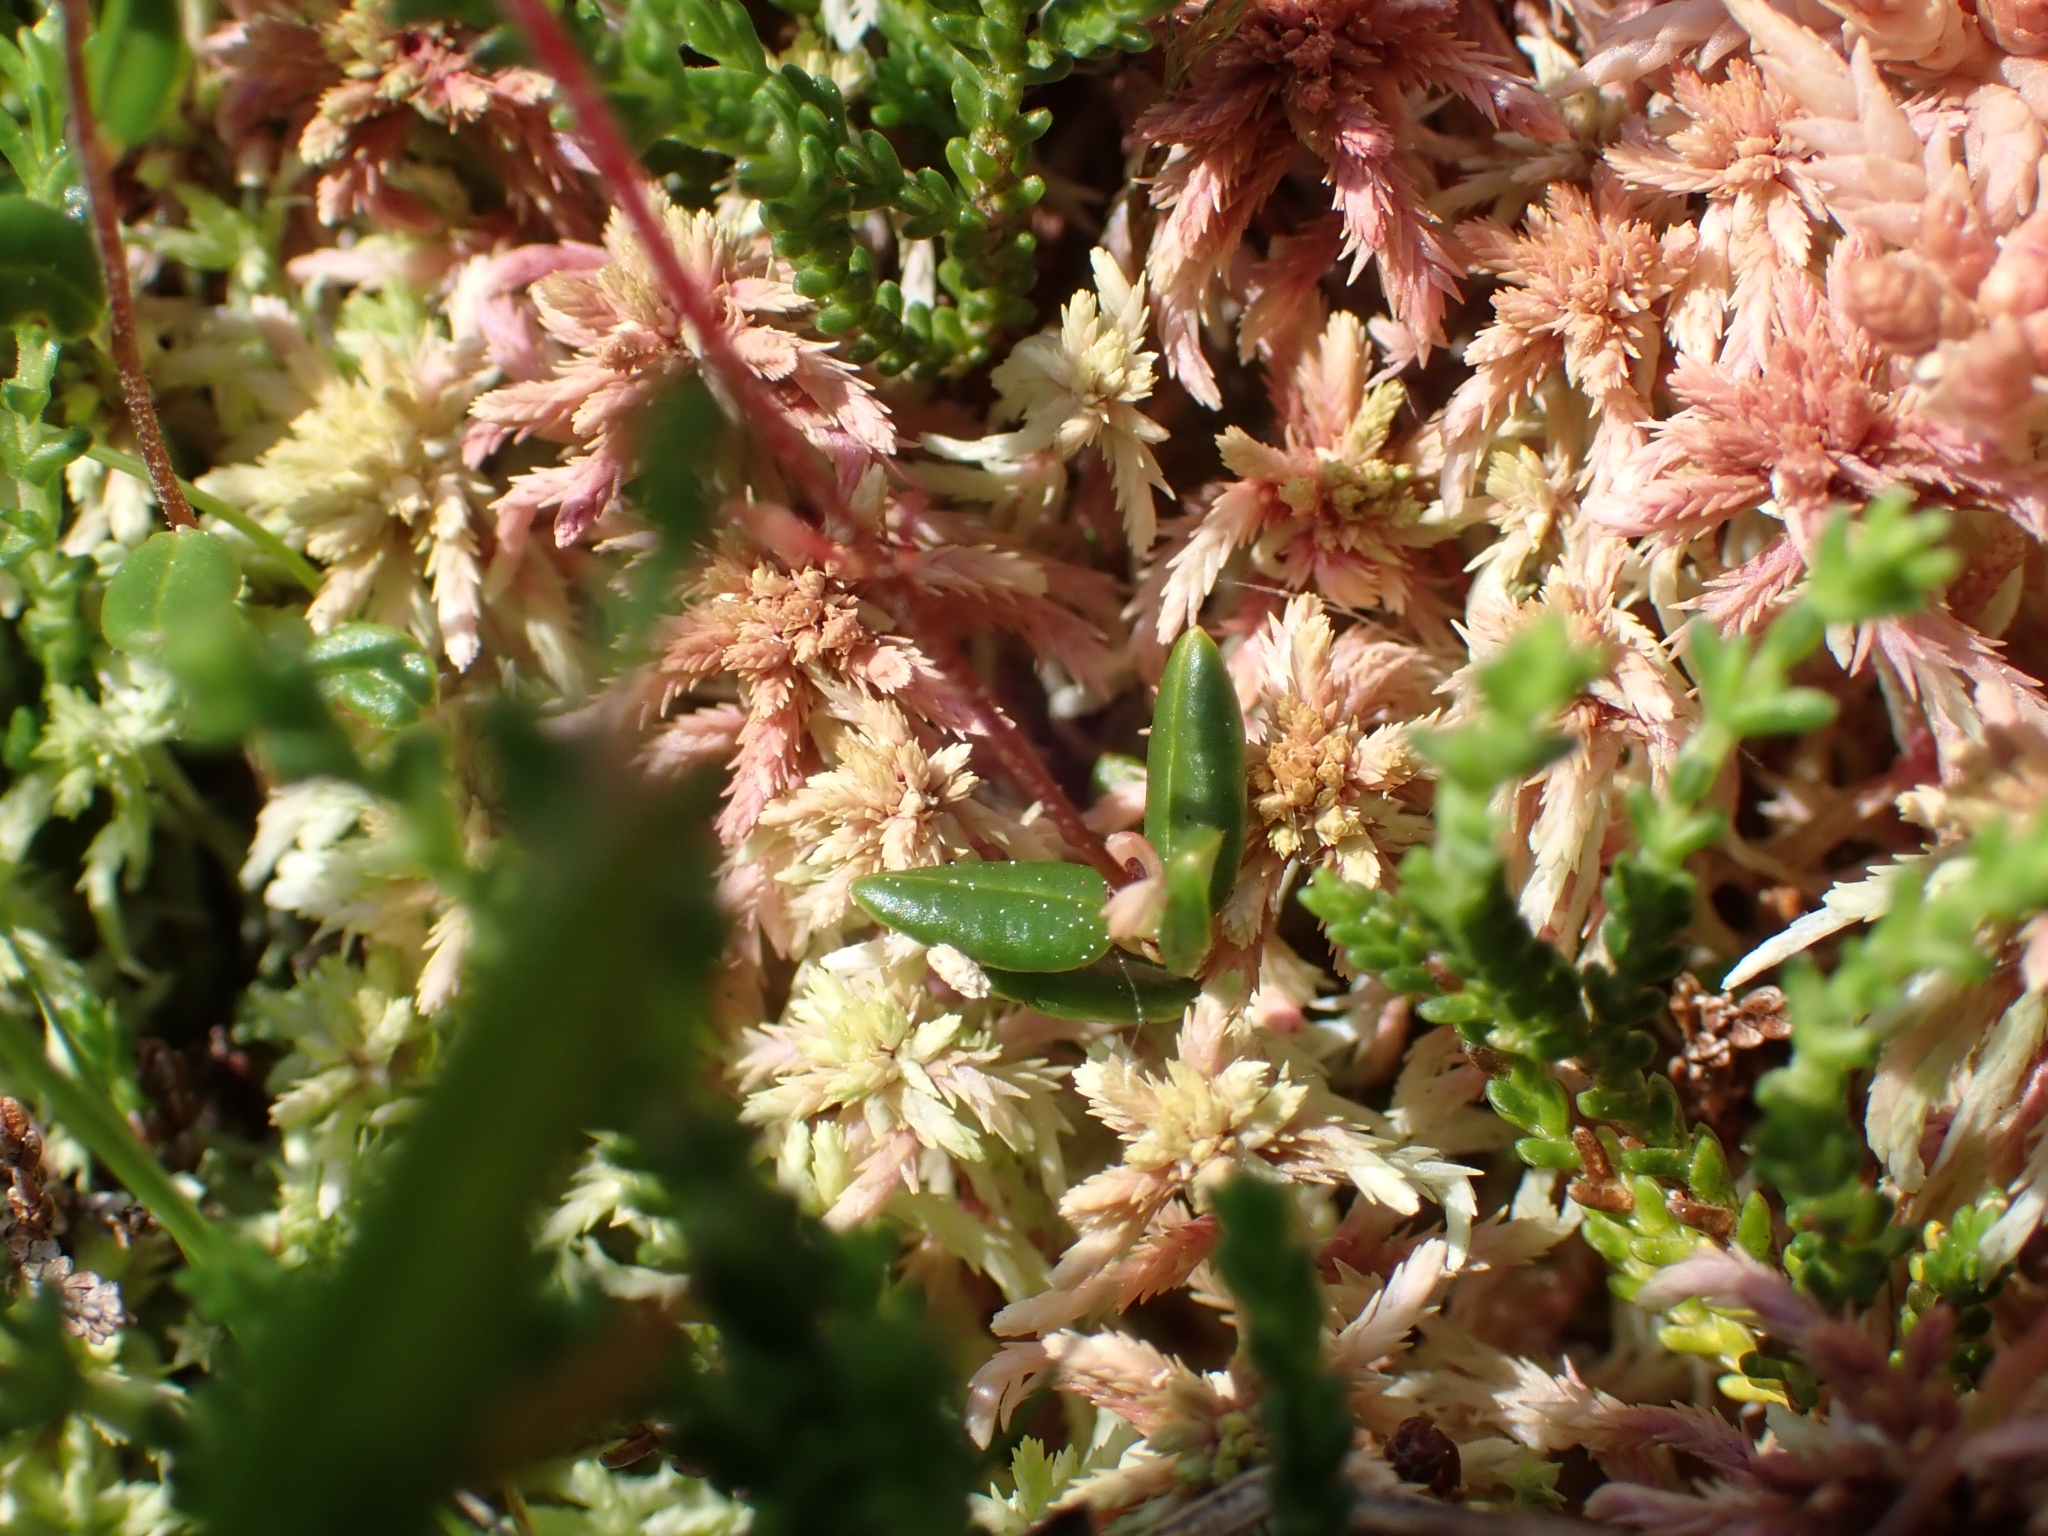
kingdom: Plantae
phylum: Tracheophyta
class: Magnoliopsida
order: Ericales
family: Ericaceae
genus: Vaccinium
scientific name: Vaccinium oxycoccos
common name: Cranberry
